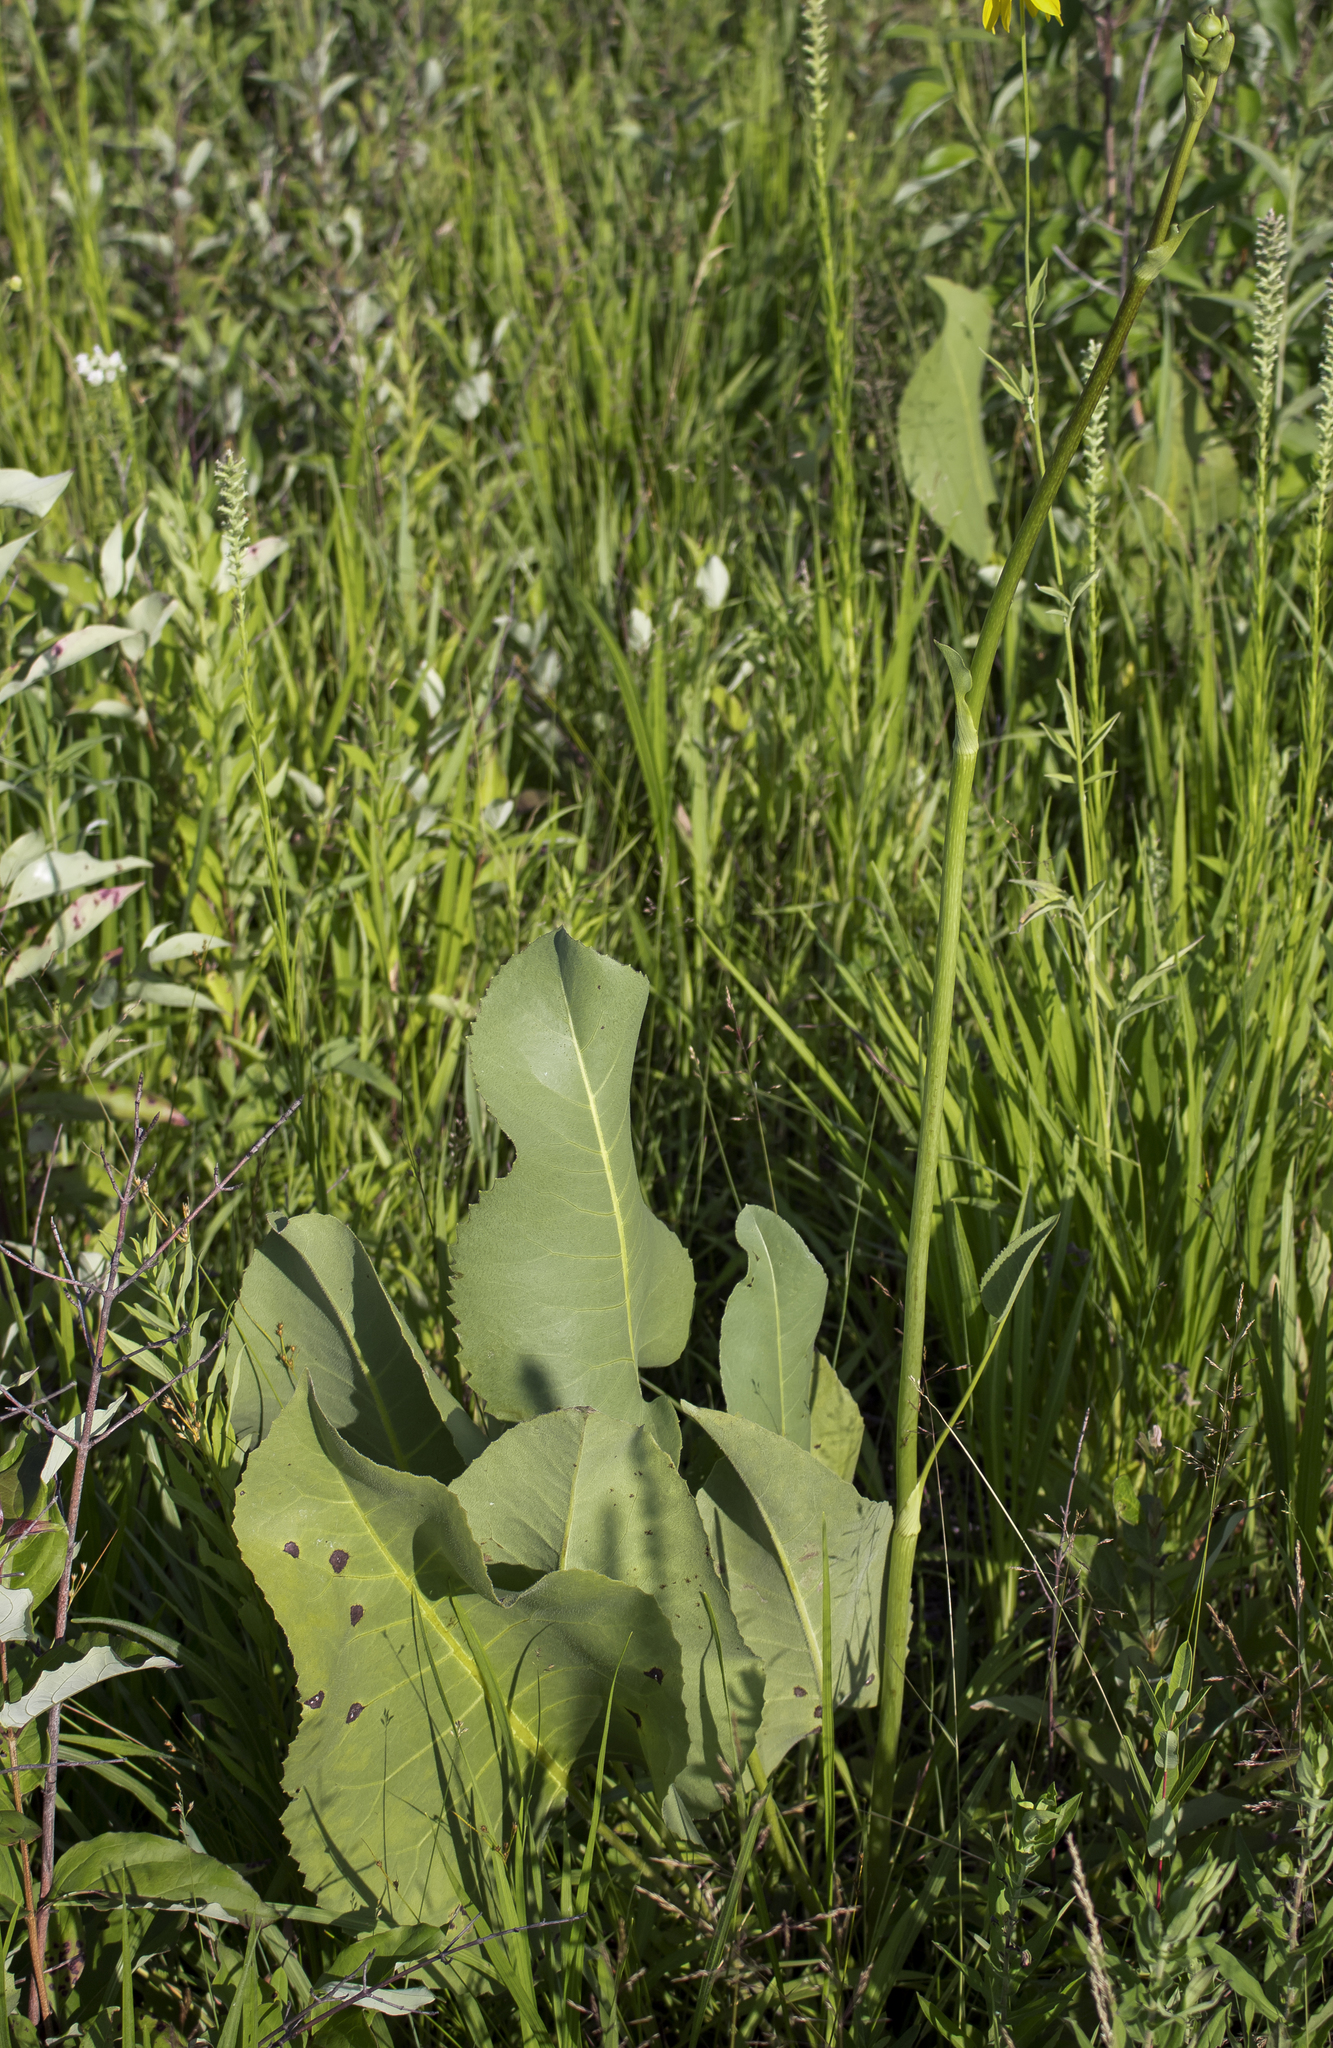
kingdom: Plantae
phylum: Tracheophyta
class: Magnoliopsida
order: Asterales
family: Asteraceae
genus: Silphium
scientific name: Silphium terebinthinaceum
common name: Basal-leaf rosinweed
